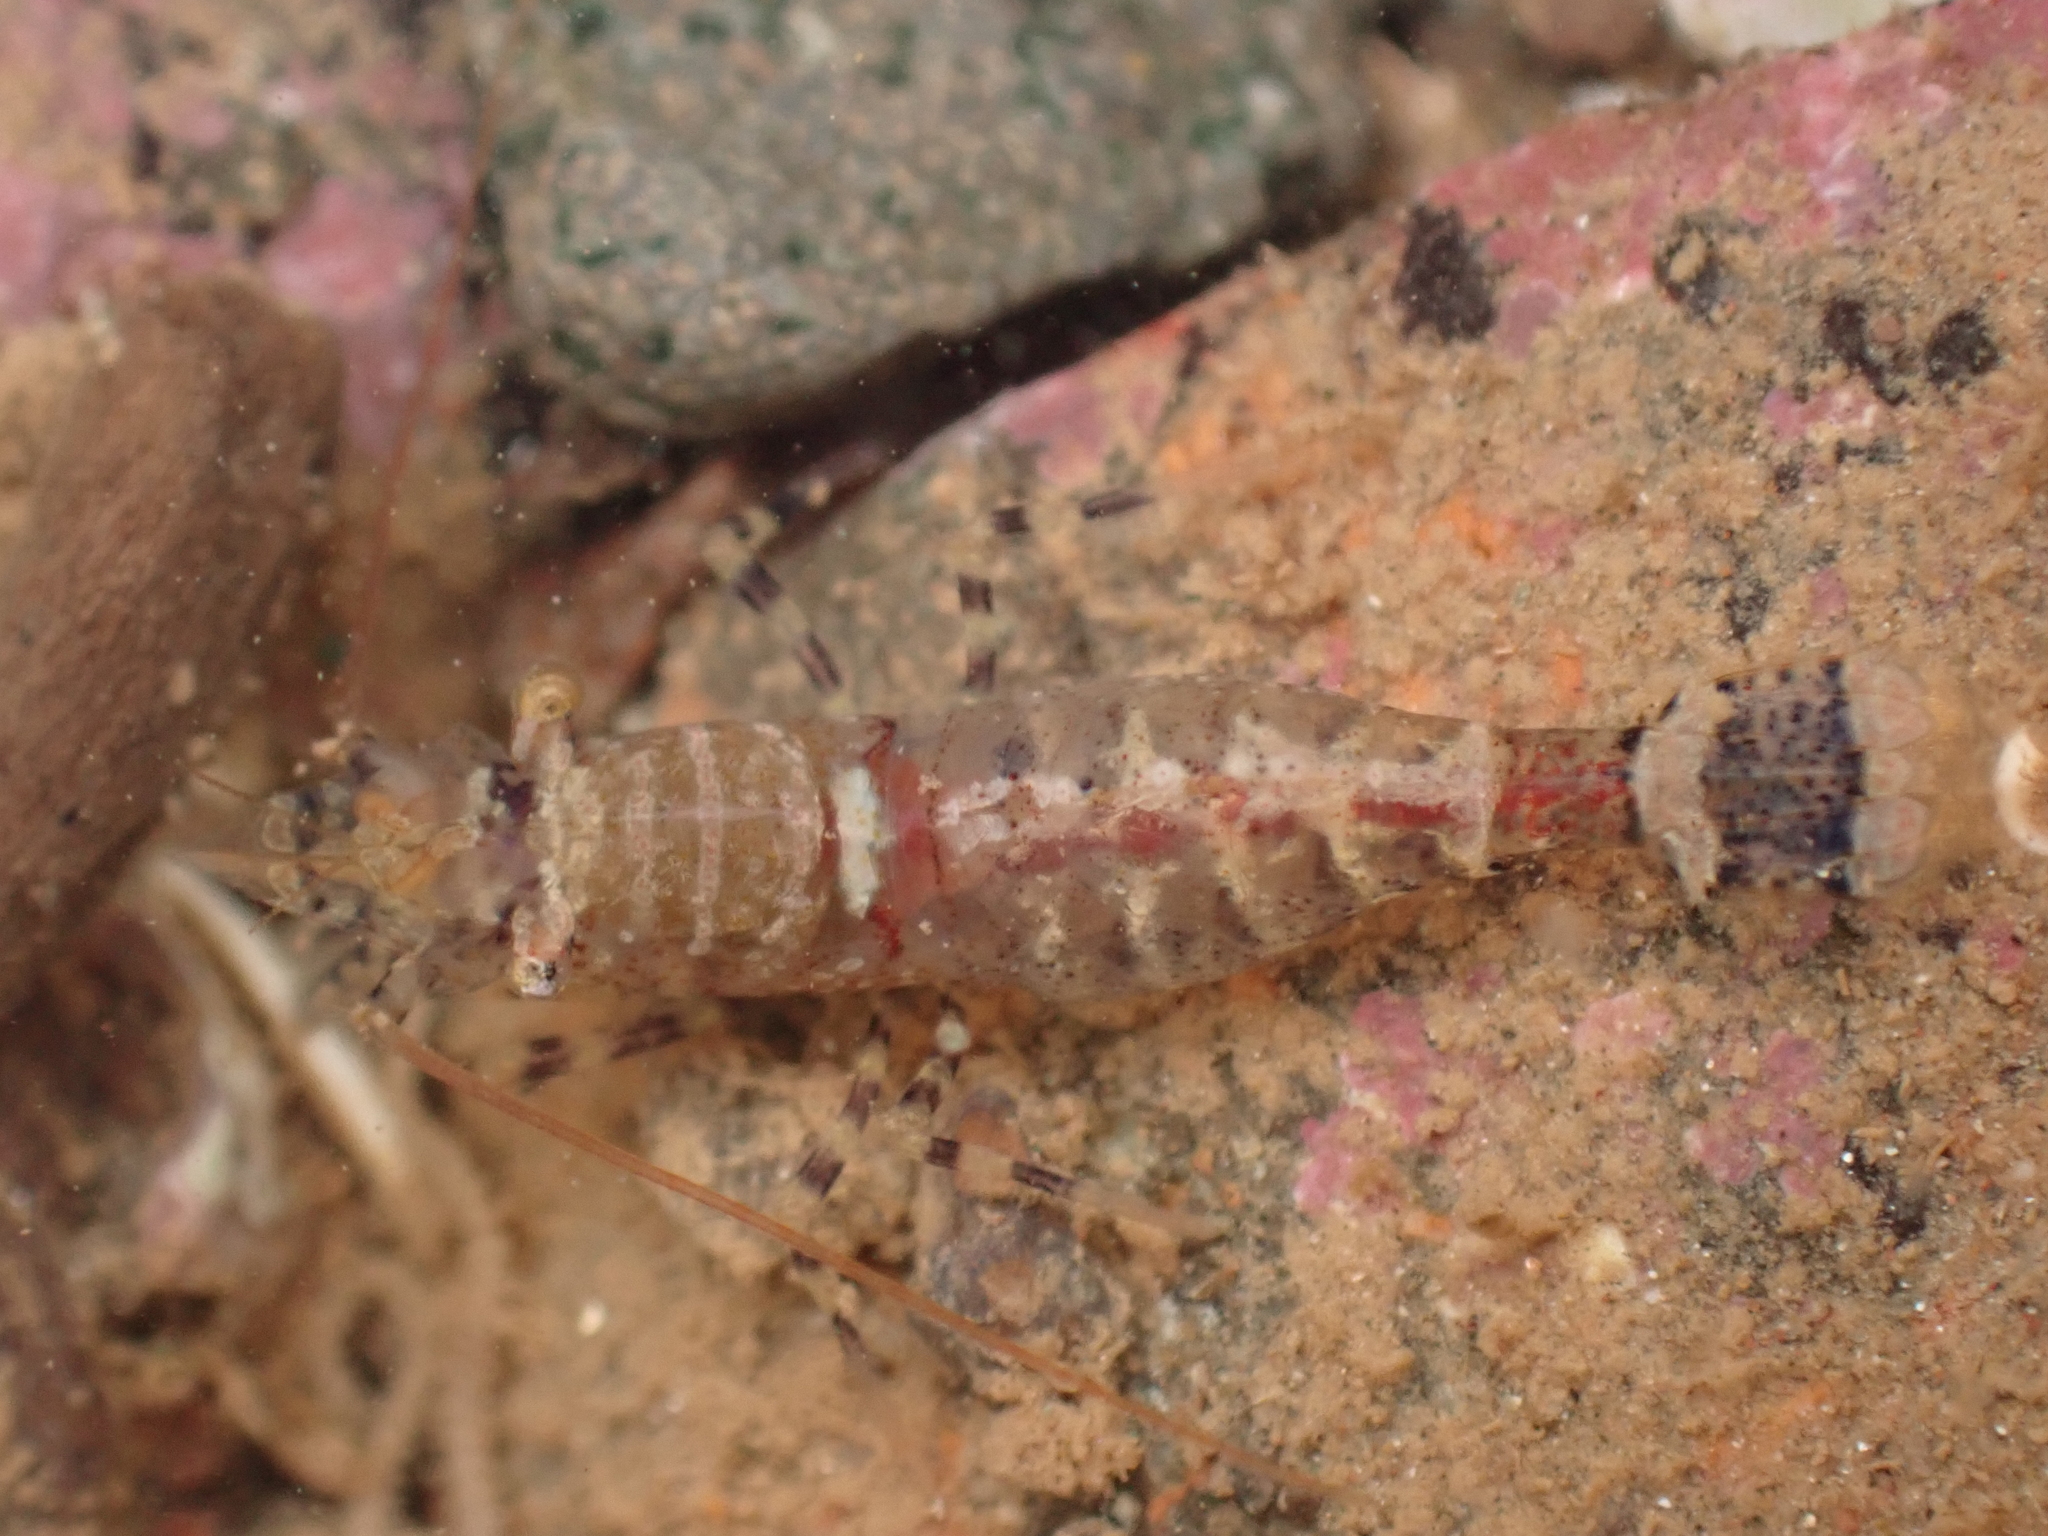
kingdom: Animalia
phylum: Arthropoda
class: Malacostraca
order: Decapoda
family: Thoridae
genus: Eualus
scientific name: Eualus pusiolus
